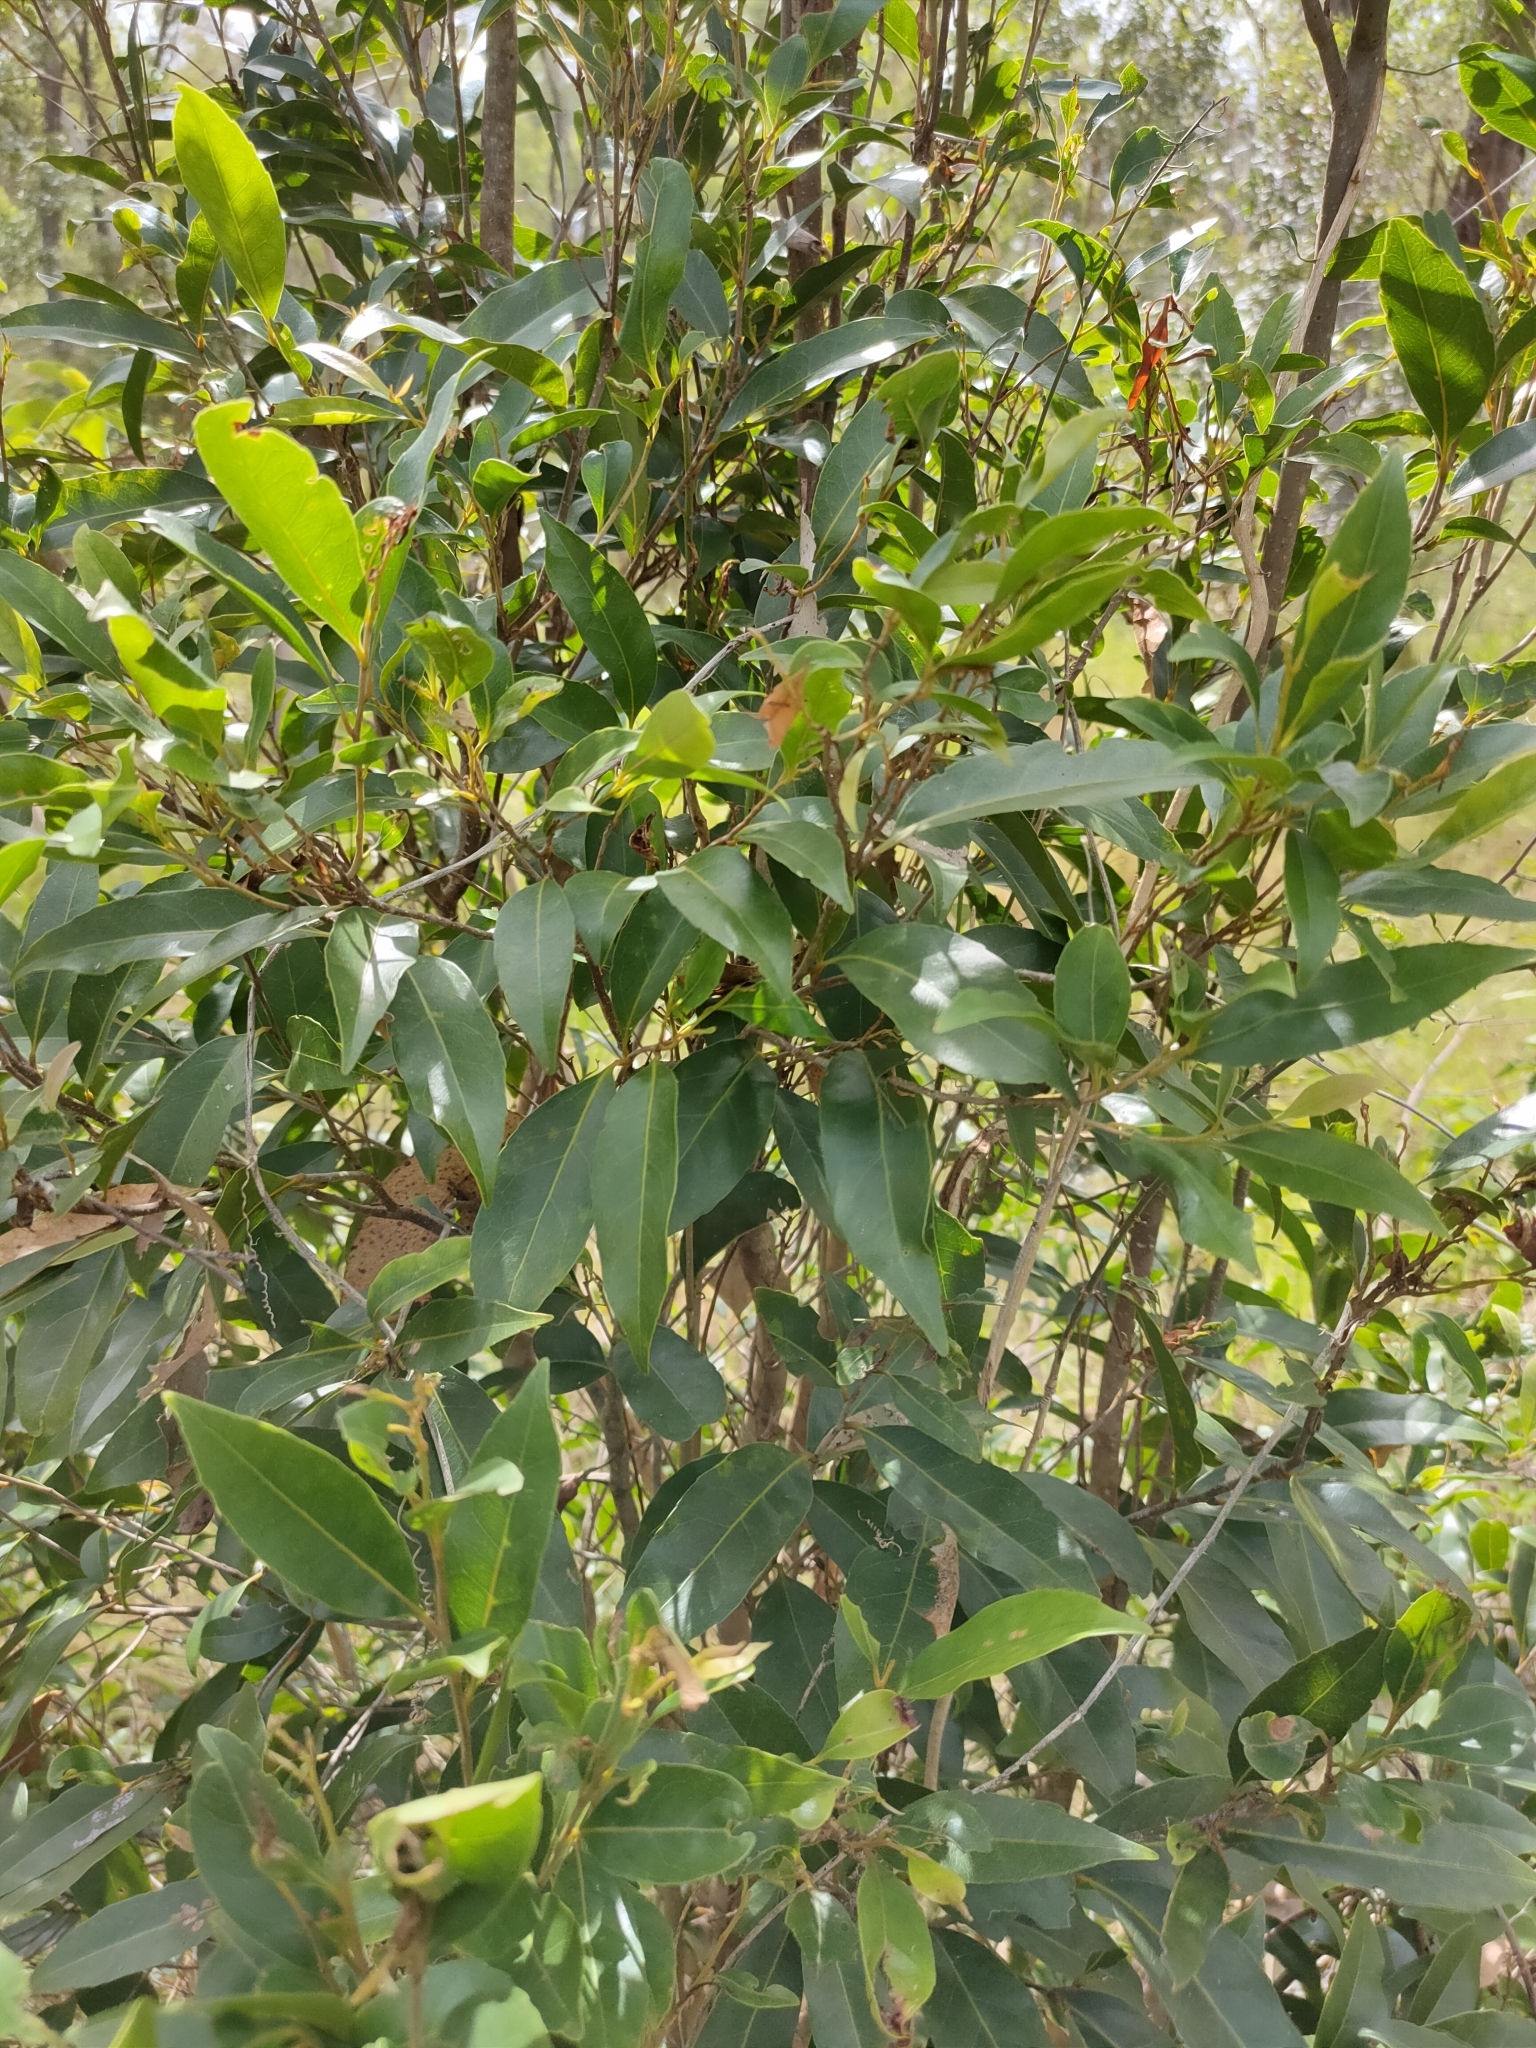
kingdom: Plantae
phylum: Tracheophyta
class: Magnoliopsida
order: Oxalidales
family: Elaeocarpaceae
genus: Elaeocarpus
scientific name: Elaeocarpus obovatus
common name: Freckled oliveberry
